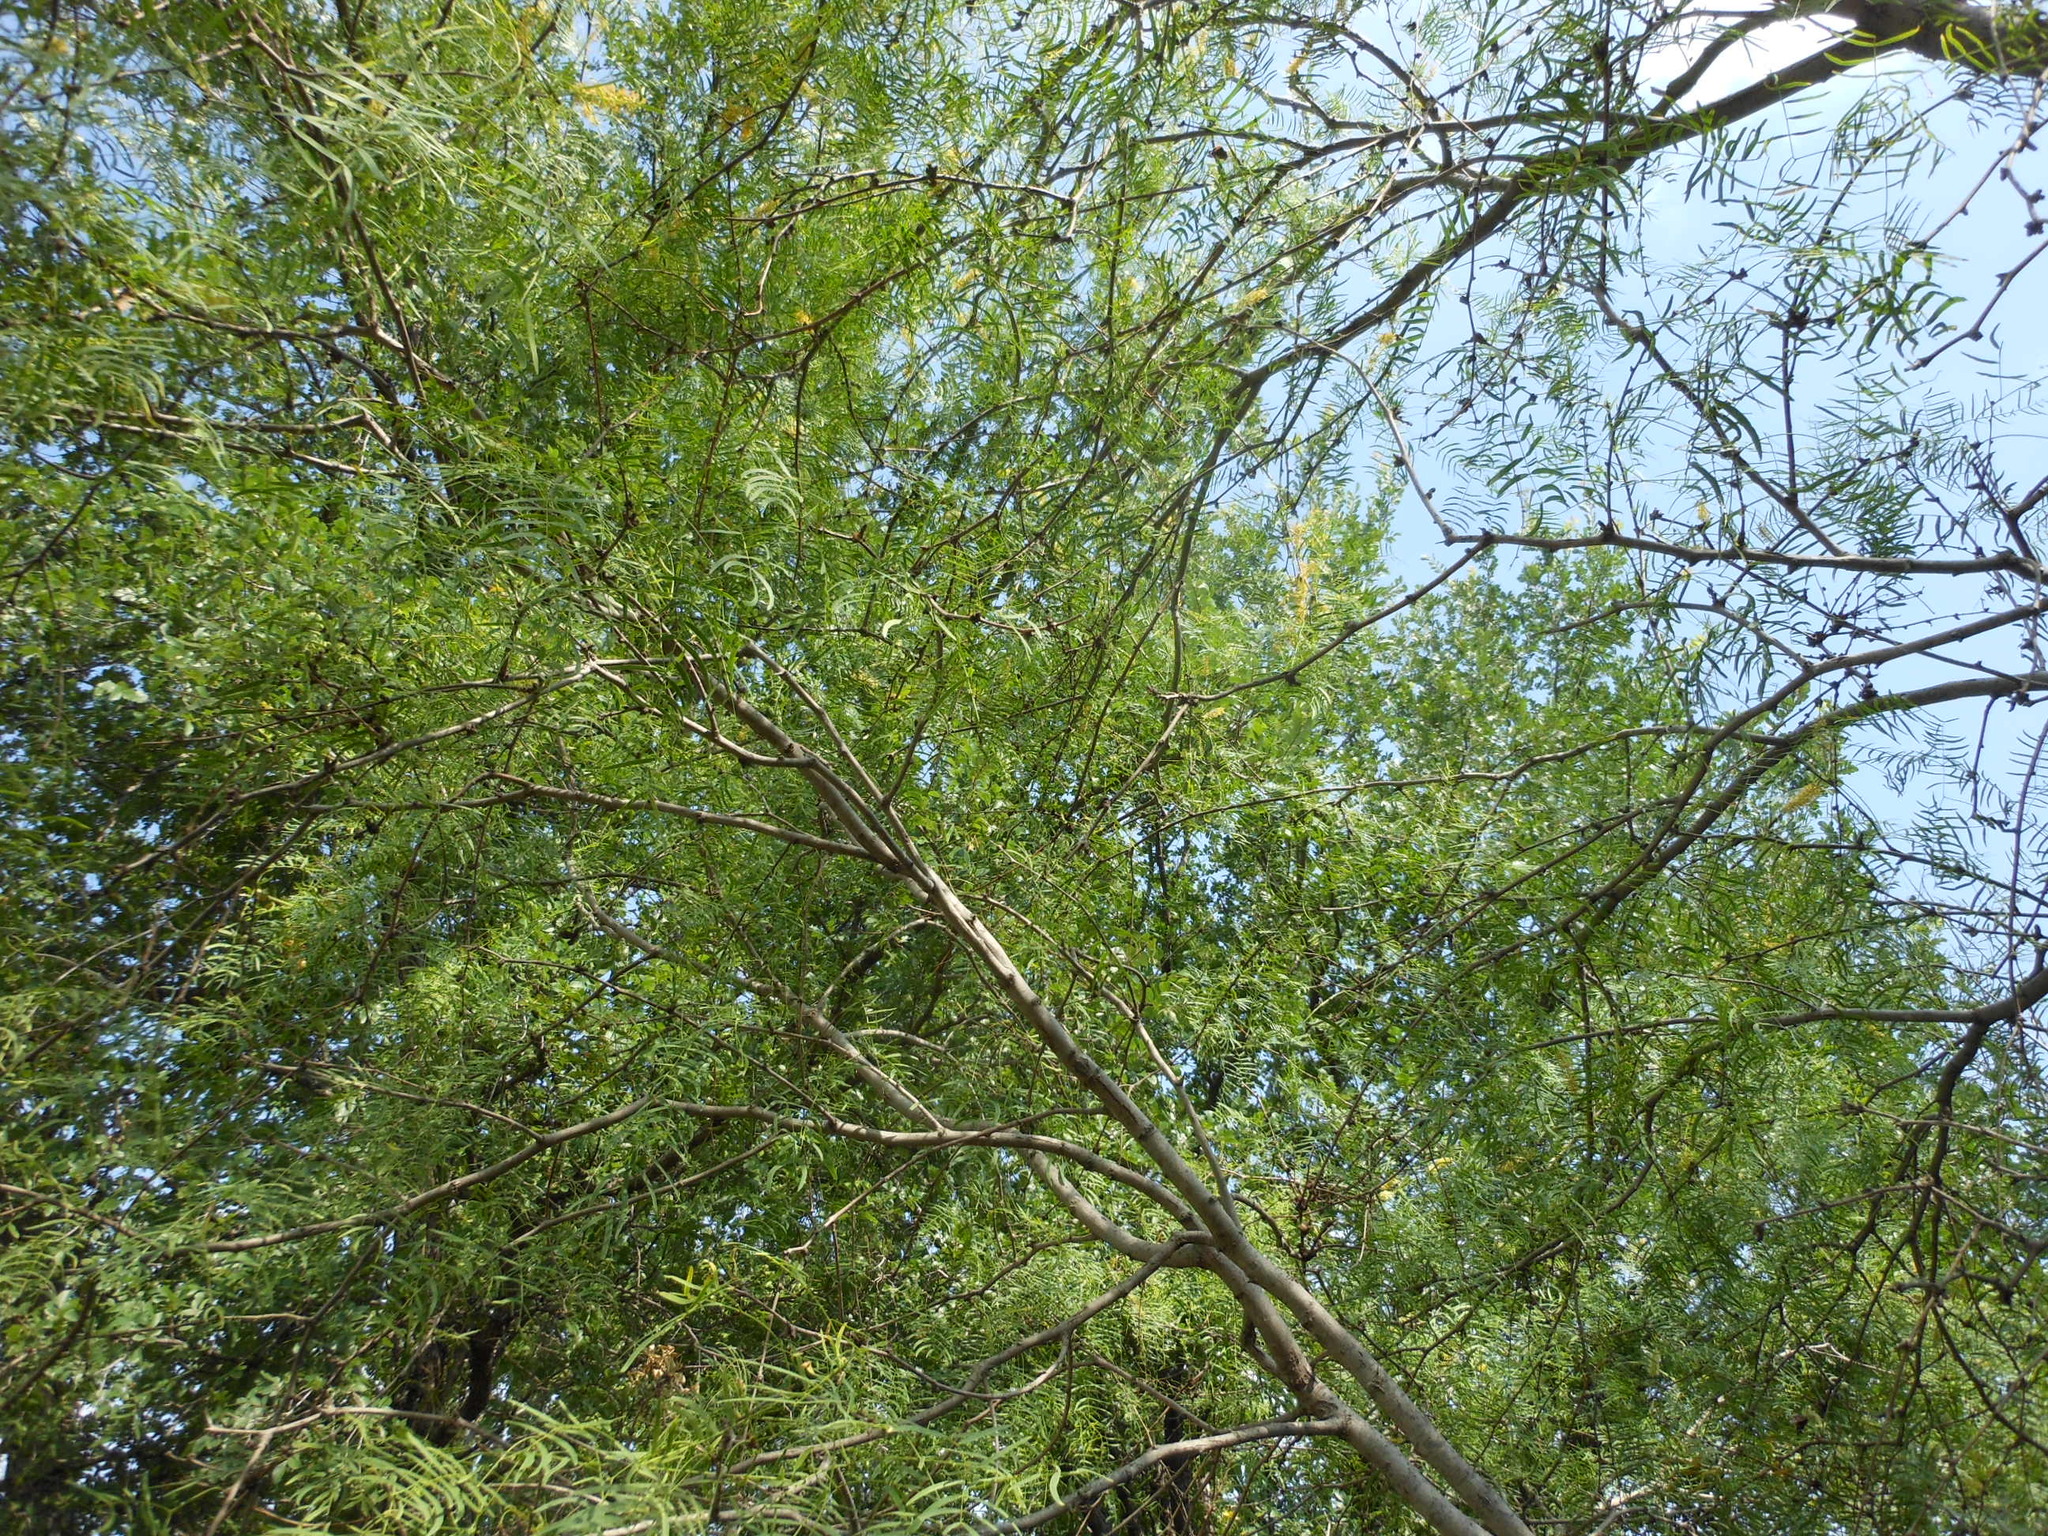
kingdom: Plantae
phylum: Tracheophyta
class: Magnoliopsida
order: Fabales
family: Fabaceae
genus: Prosopis
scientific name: Prosopis glandulosa
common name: Honey mesquite
